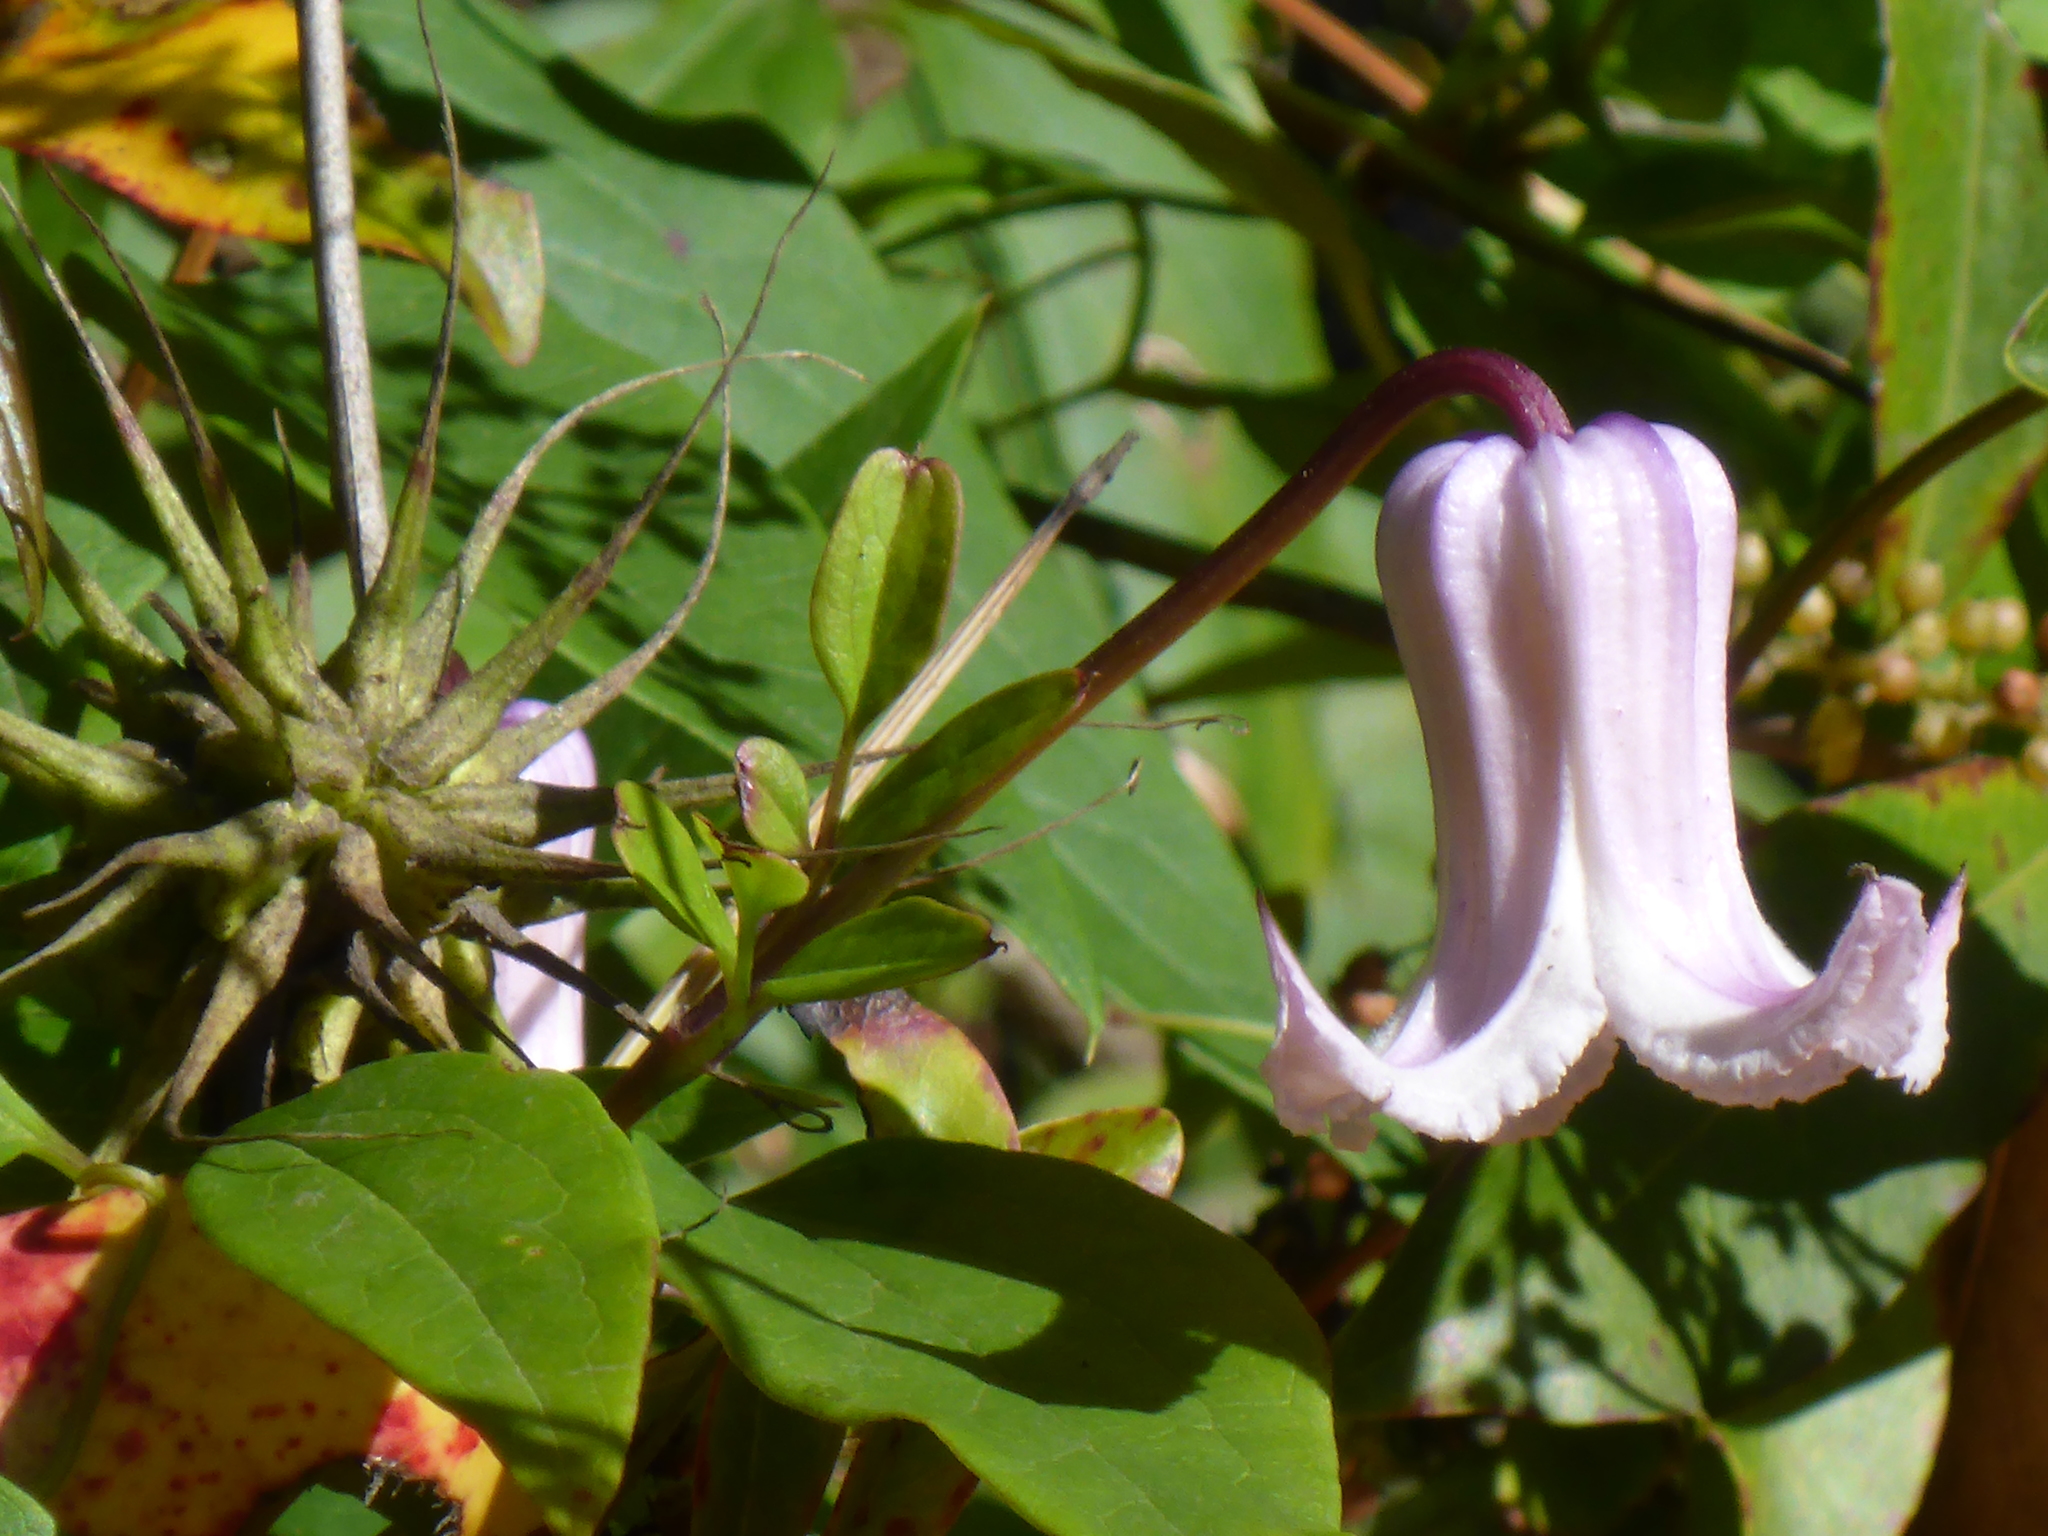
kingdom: Plantae
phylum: Tracheophyta
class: Magnoliopsida
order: Ranunculales
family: Ranunculaceae
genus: Clematis
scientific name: Clematis crispa
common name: Curly clematis
